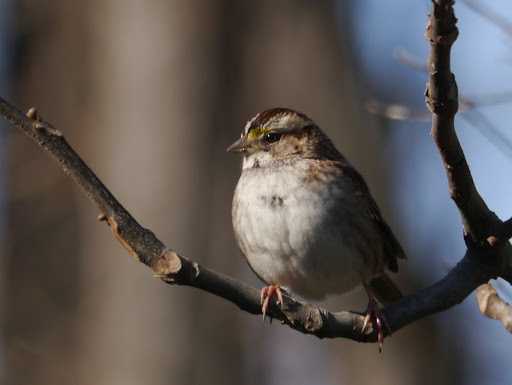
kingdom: Animalia
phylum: Chordata
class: Aves
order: Passeriformes
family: Passerellidae
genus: Zonotrichia
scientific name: Zonotrichia albicollis
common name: White-throated sparrow
